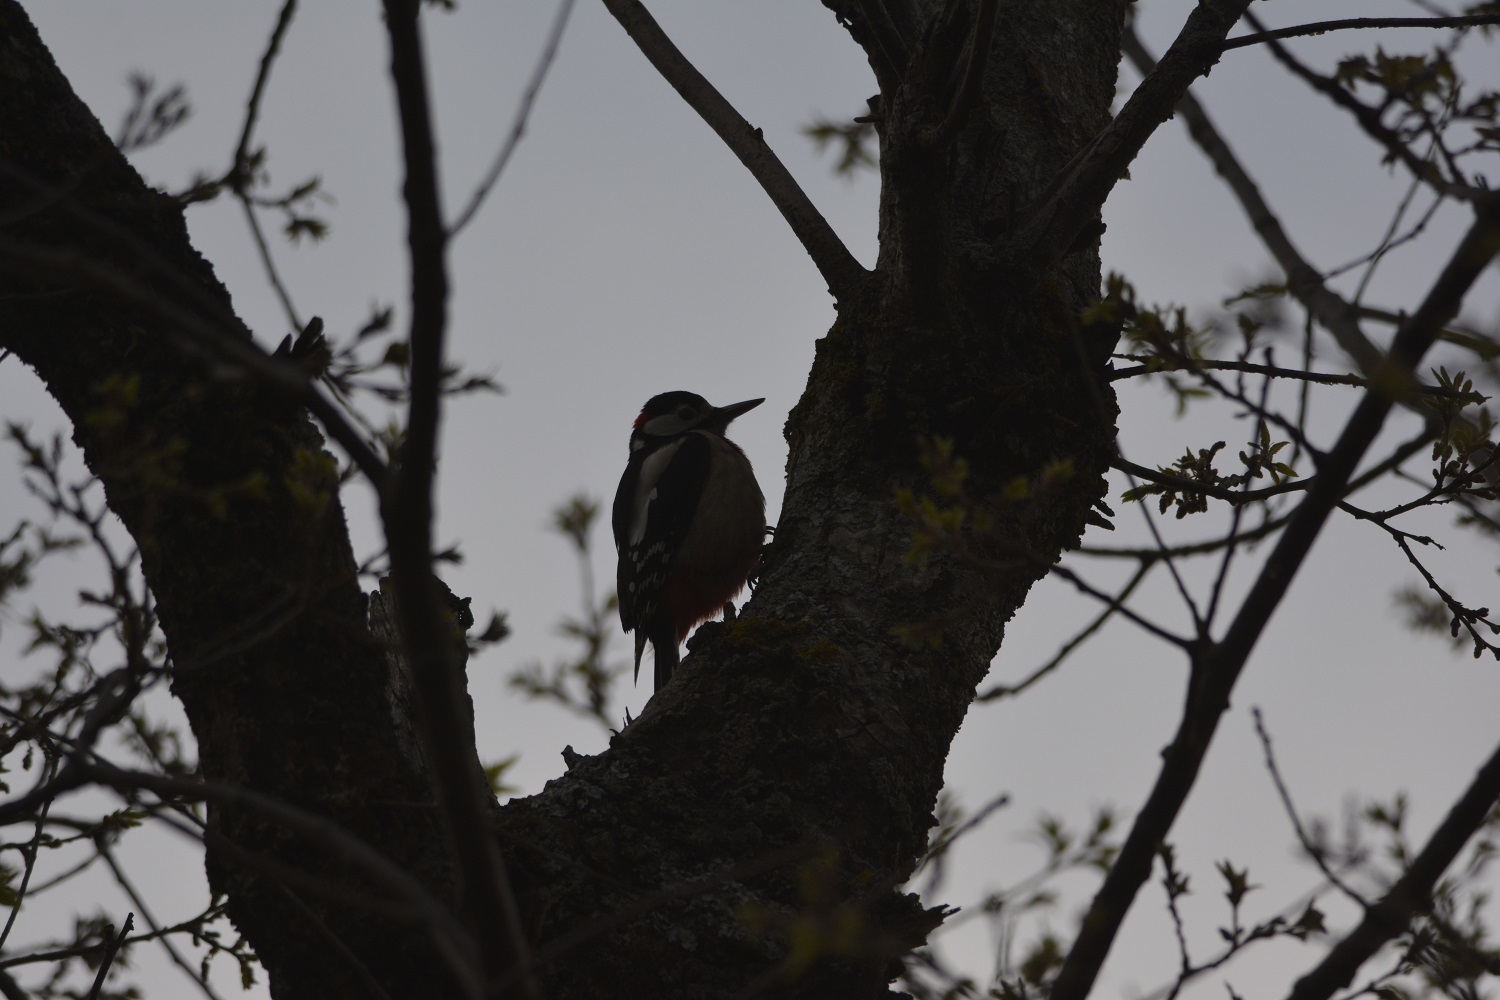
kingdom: Animalia
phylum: Chordata
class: Aves
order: Piciformes
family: Picidae
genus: Dendrocopos
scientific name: Dendrocopos major
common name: Great spotted woodpecker
